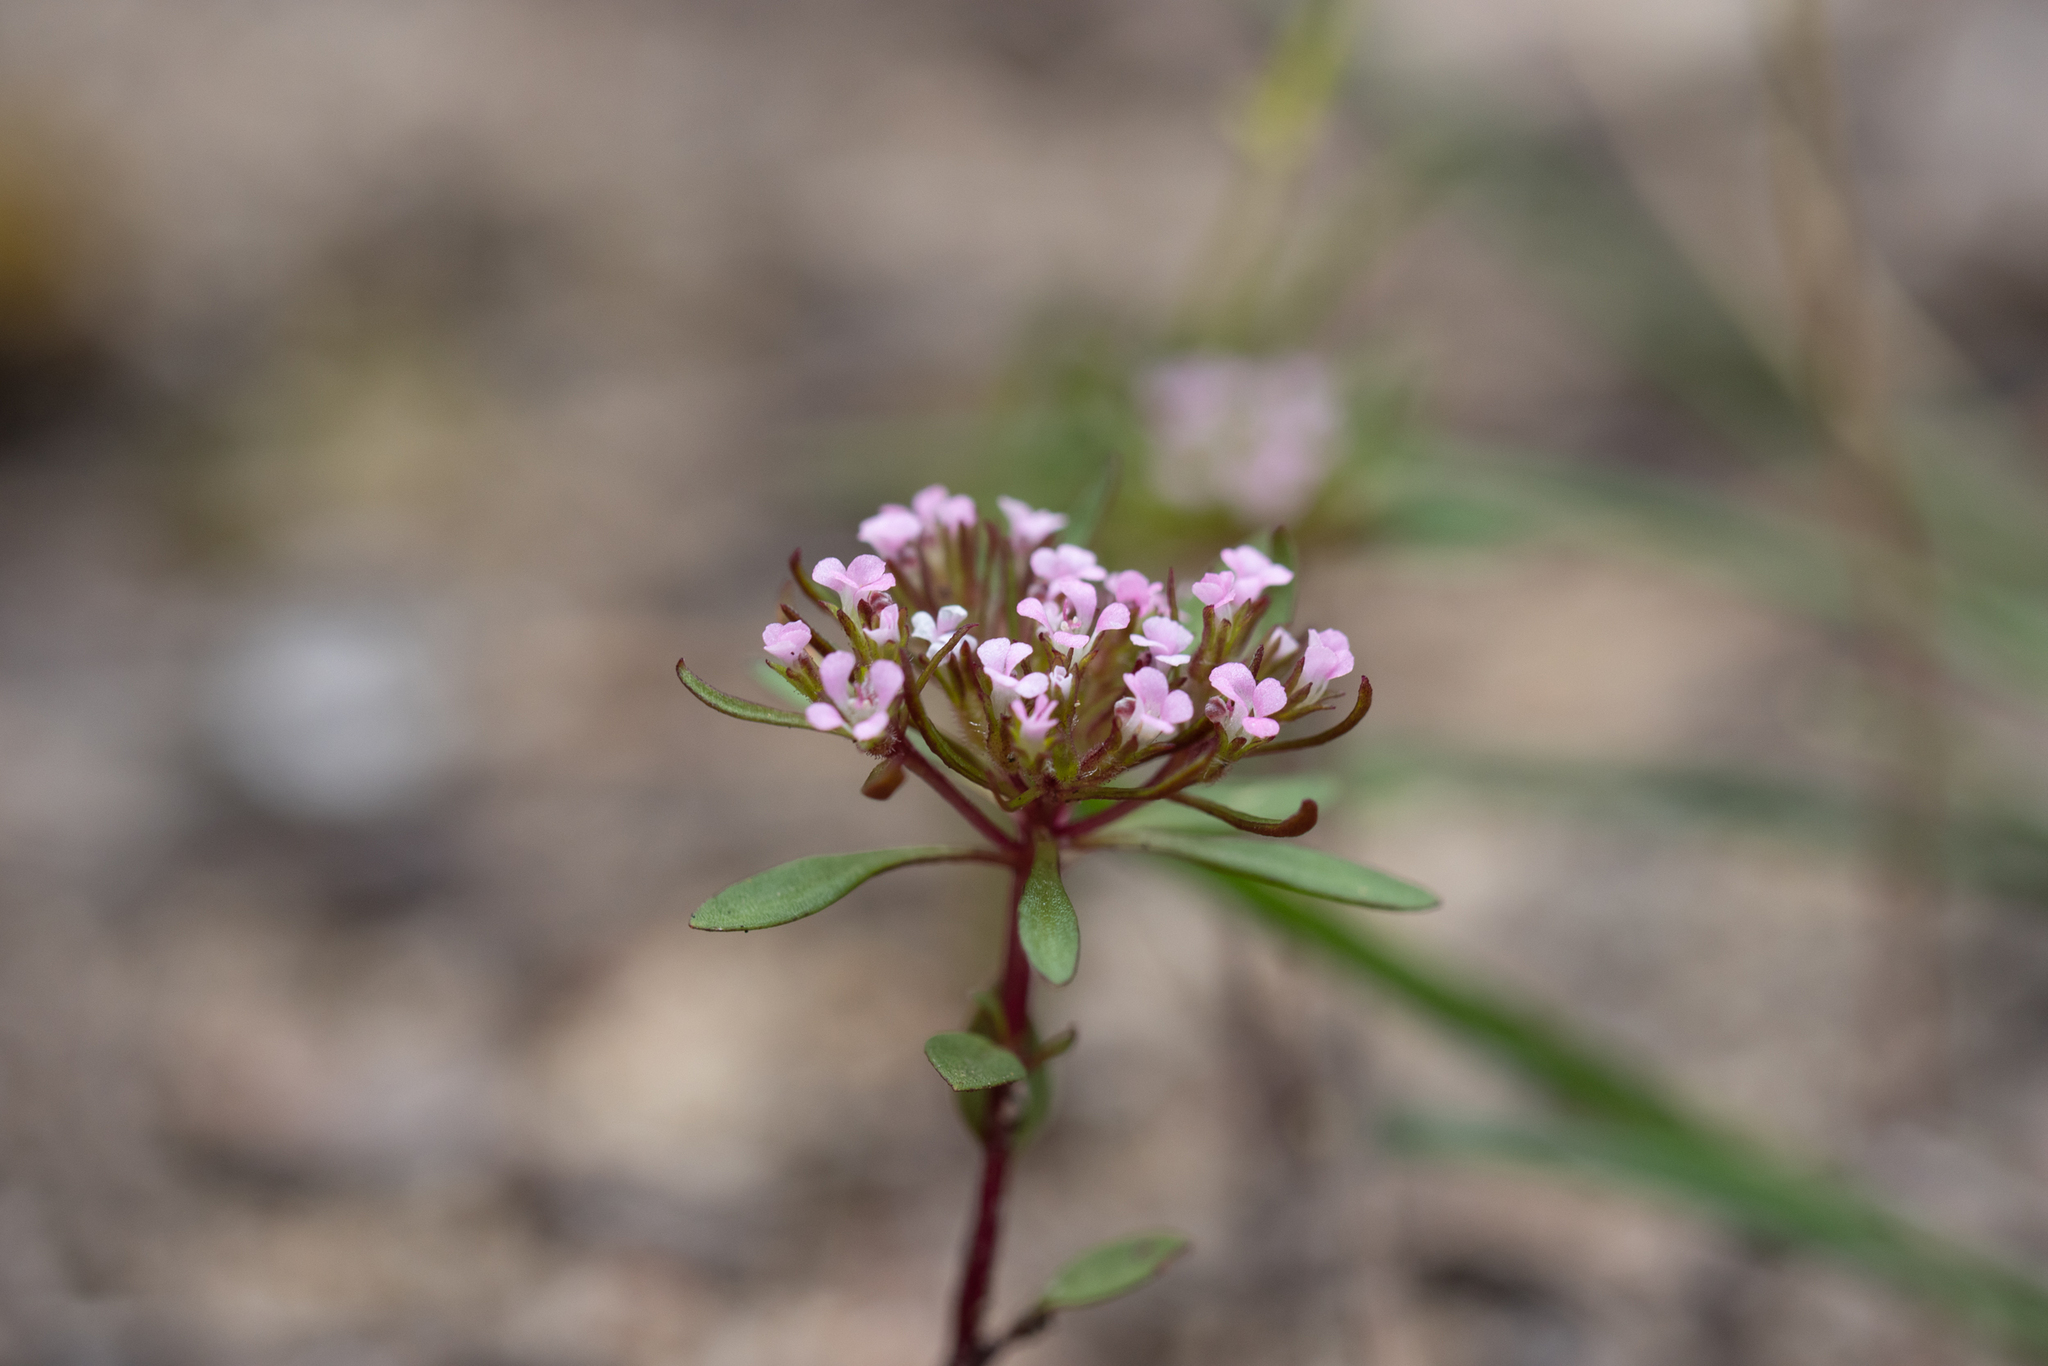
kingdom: Plantae
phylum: Tracheophyta
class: Magnoliopsida
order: Asterales
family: Stylidiaceae
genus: Levenhookia
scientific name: Levenhookia pusilla
